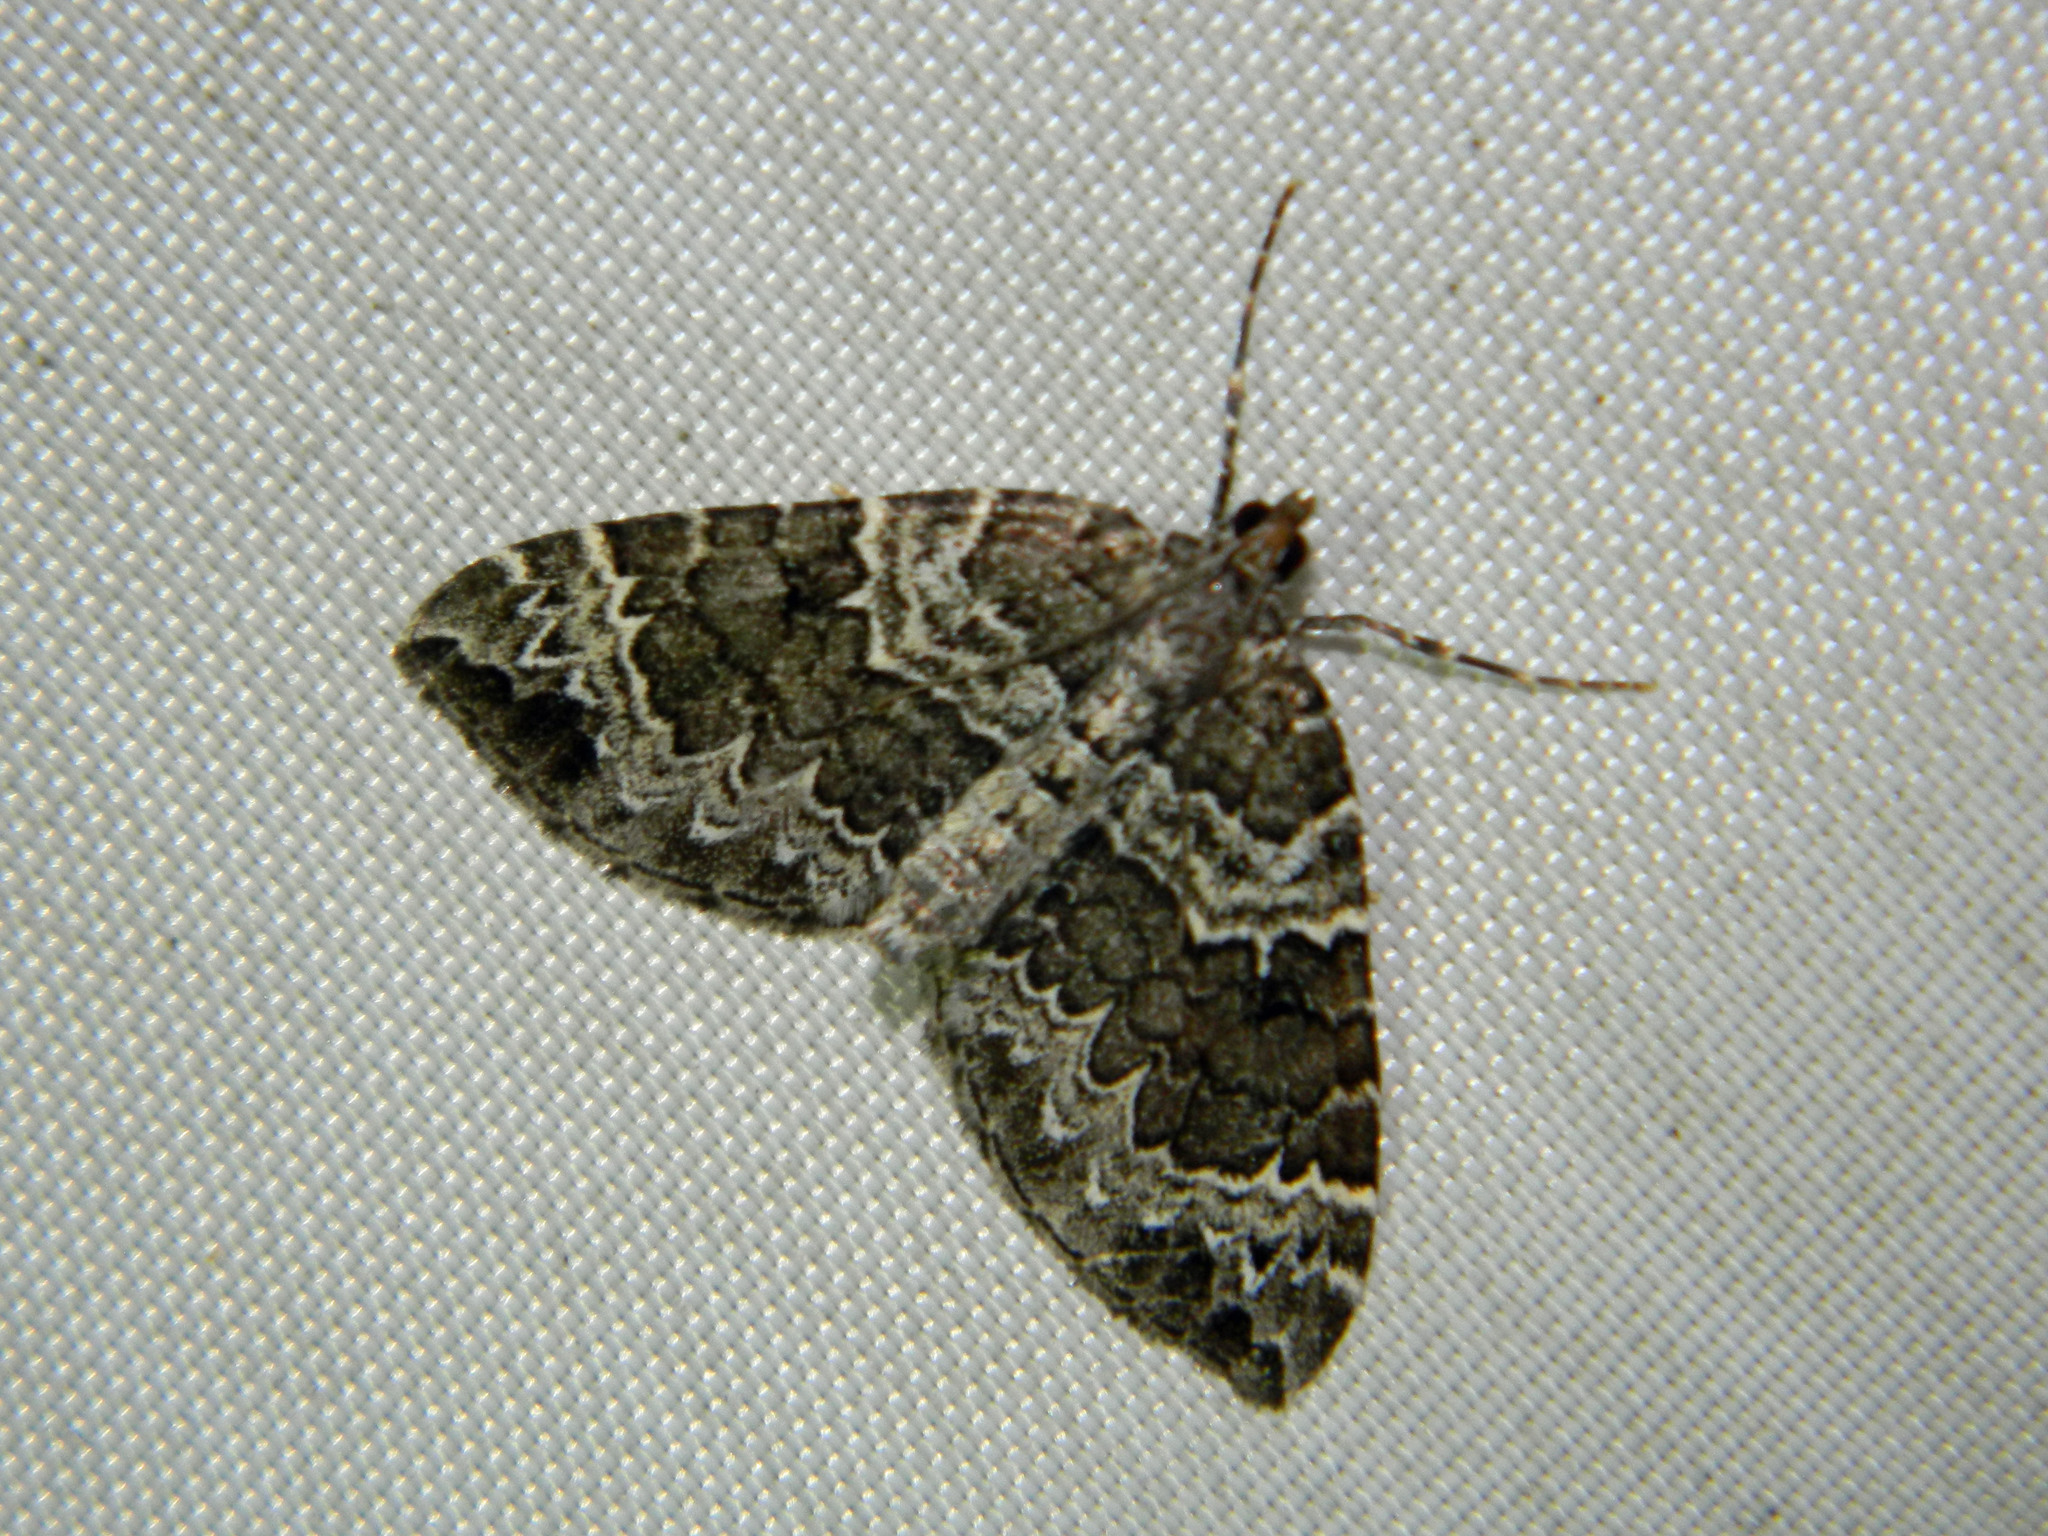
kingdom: Animalia
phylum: Arthropoda
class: Insecta
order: Lepidoptera
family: Geometridae
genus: Eulithis
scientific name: Eulithis explanata
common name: White eulithis
